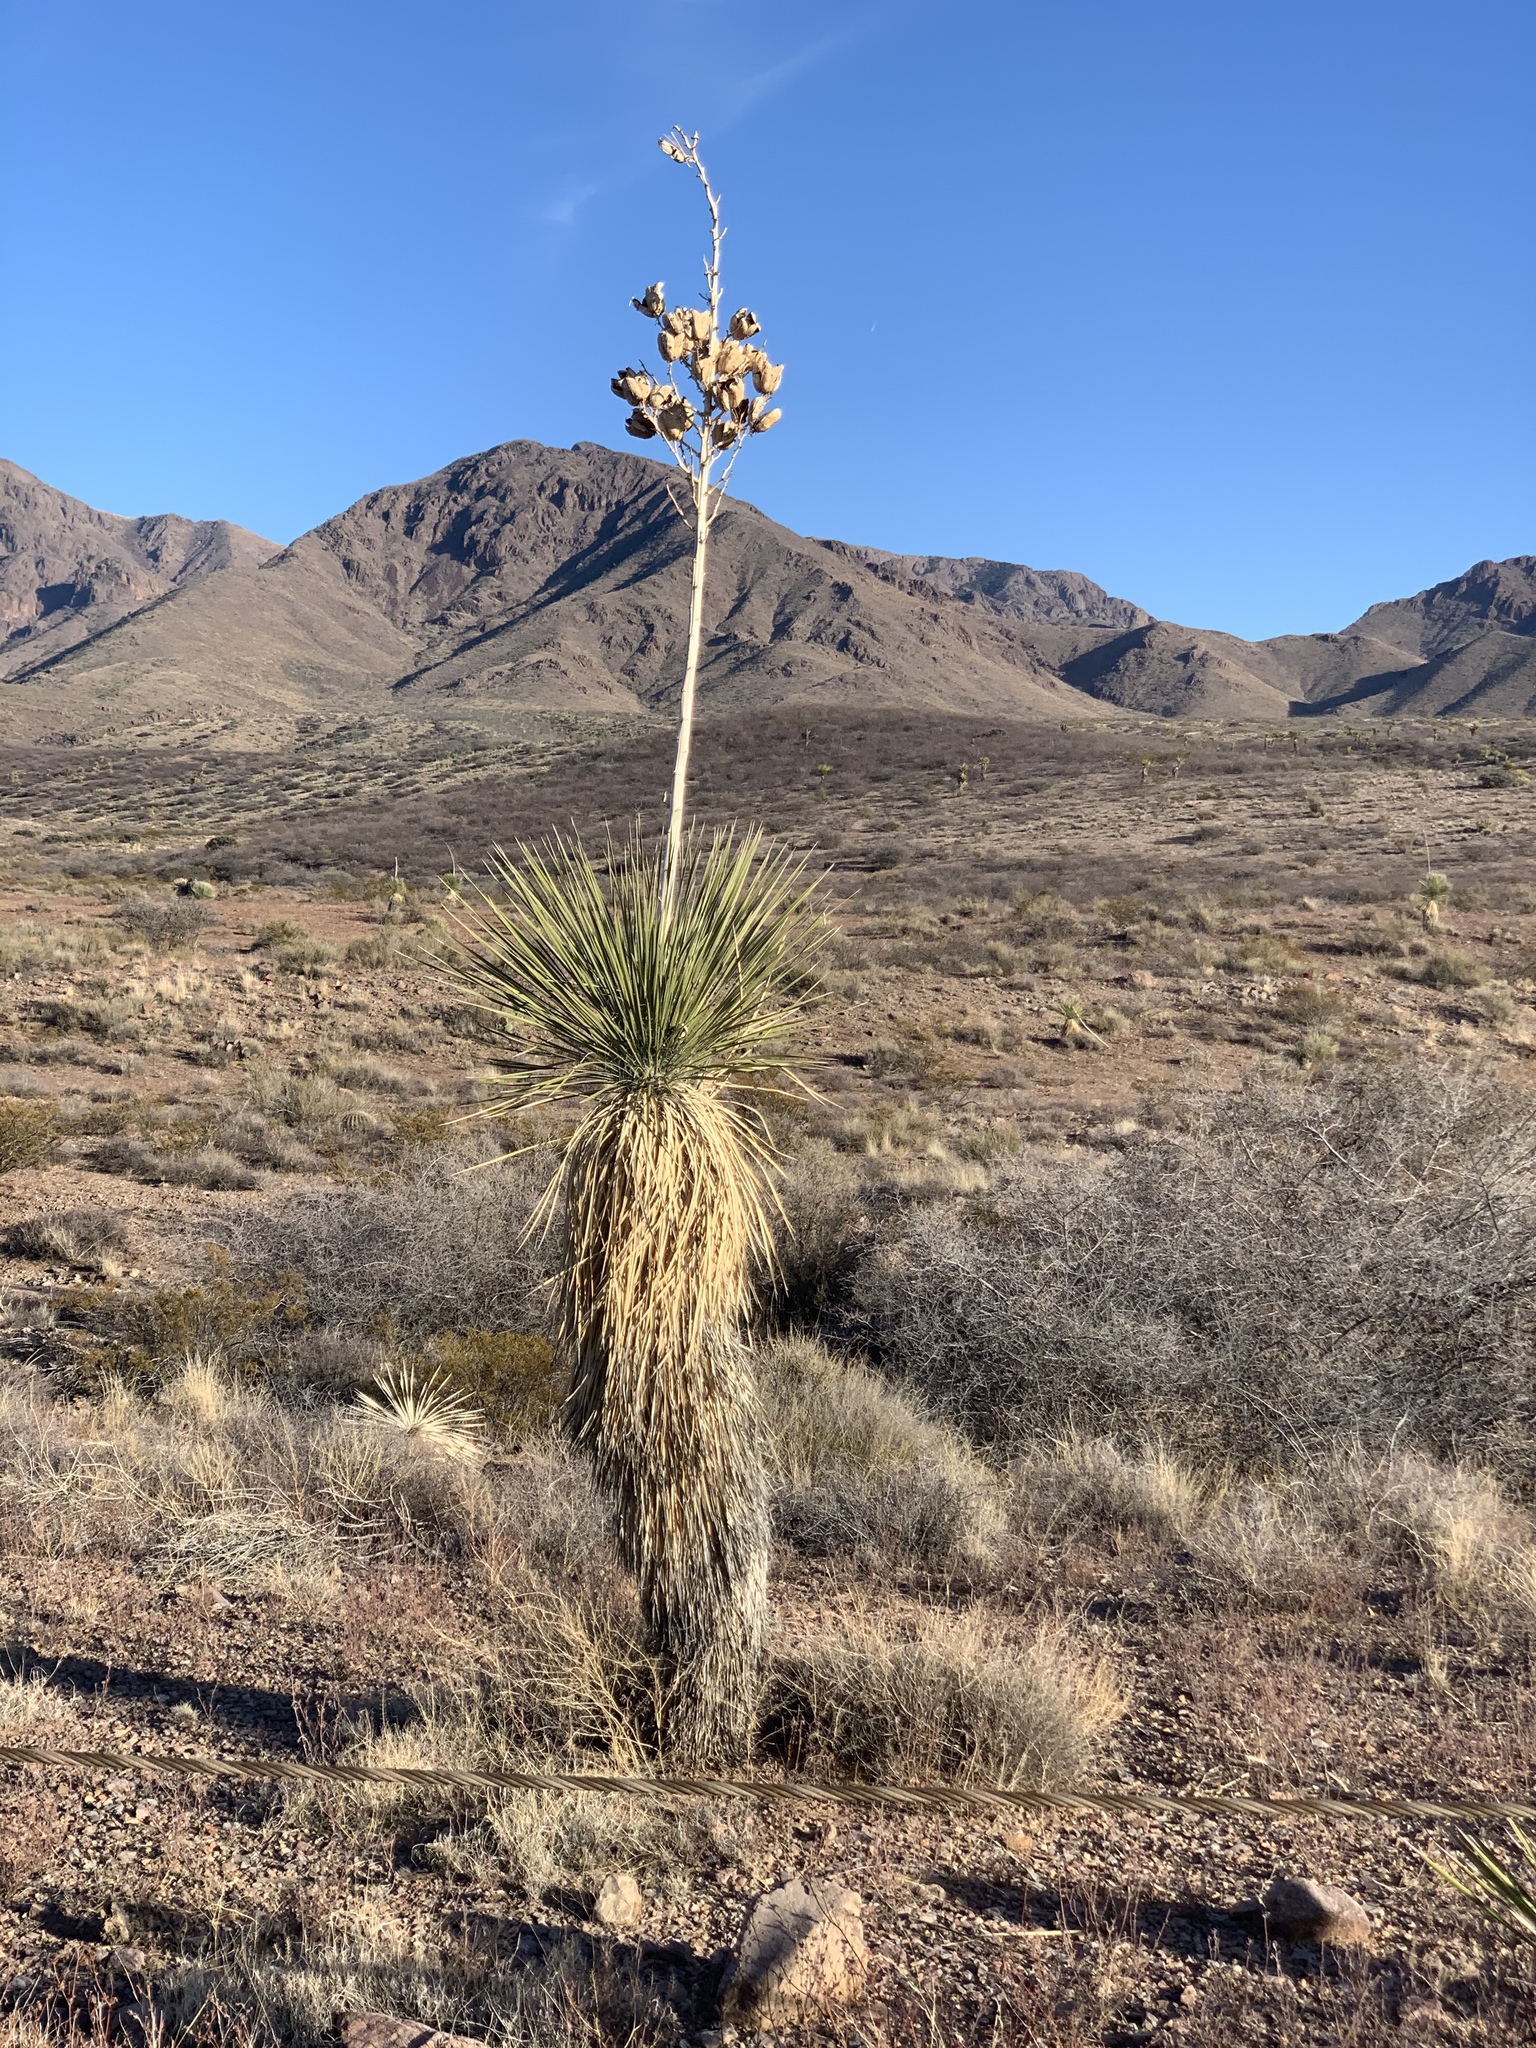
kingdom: Plantae
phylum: Tracheophyta
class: Liliopsida
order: Asparagales
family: Asparagaceae
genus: Yucca
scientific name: Yucca elata
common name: Palmella
